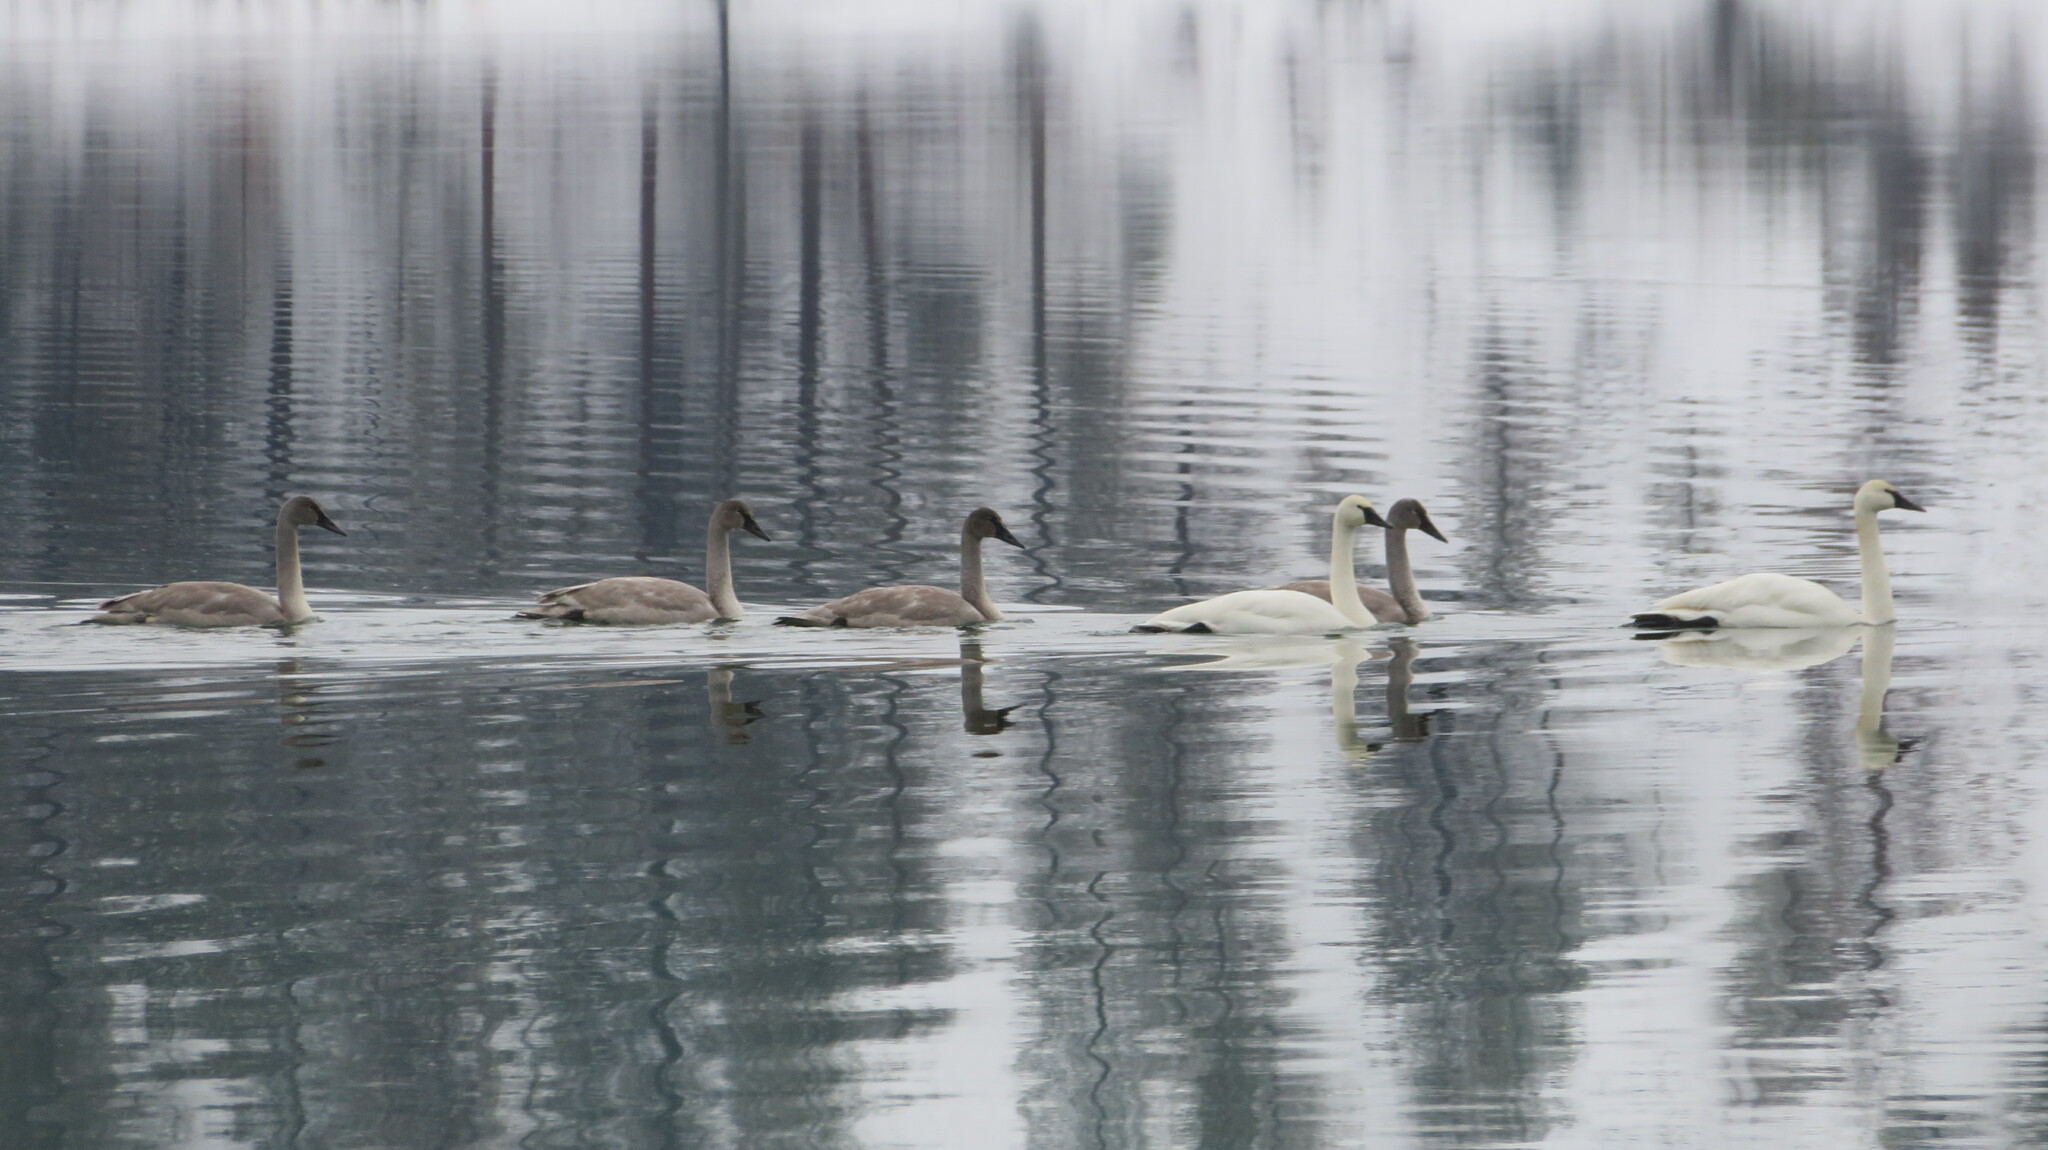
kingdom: Animalia
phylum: Chordata
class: Aves
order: Anseriformes
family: Anatidae
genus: Cygnus
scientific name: Cygnus buccinator
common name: Trumpeter swan
